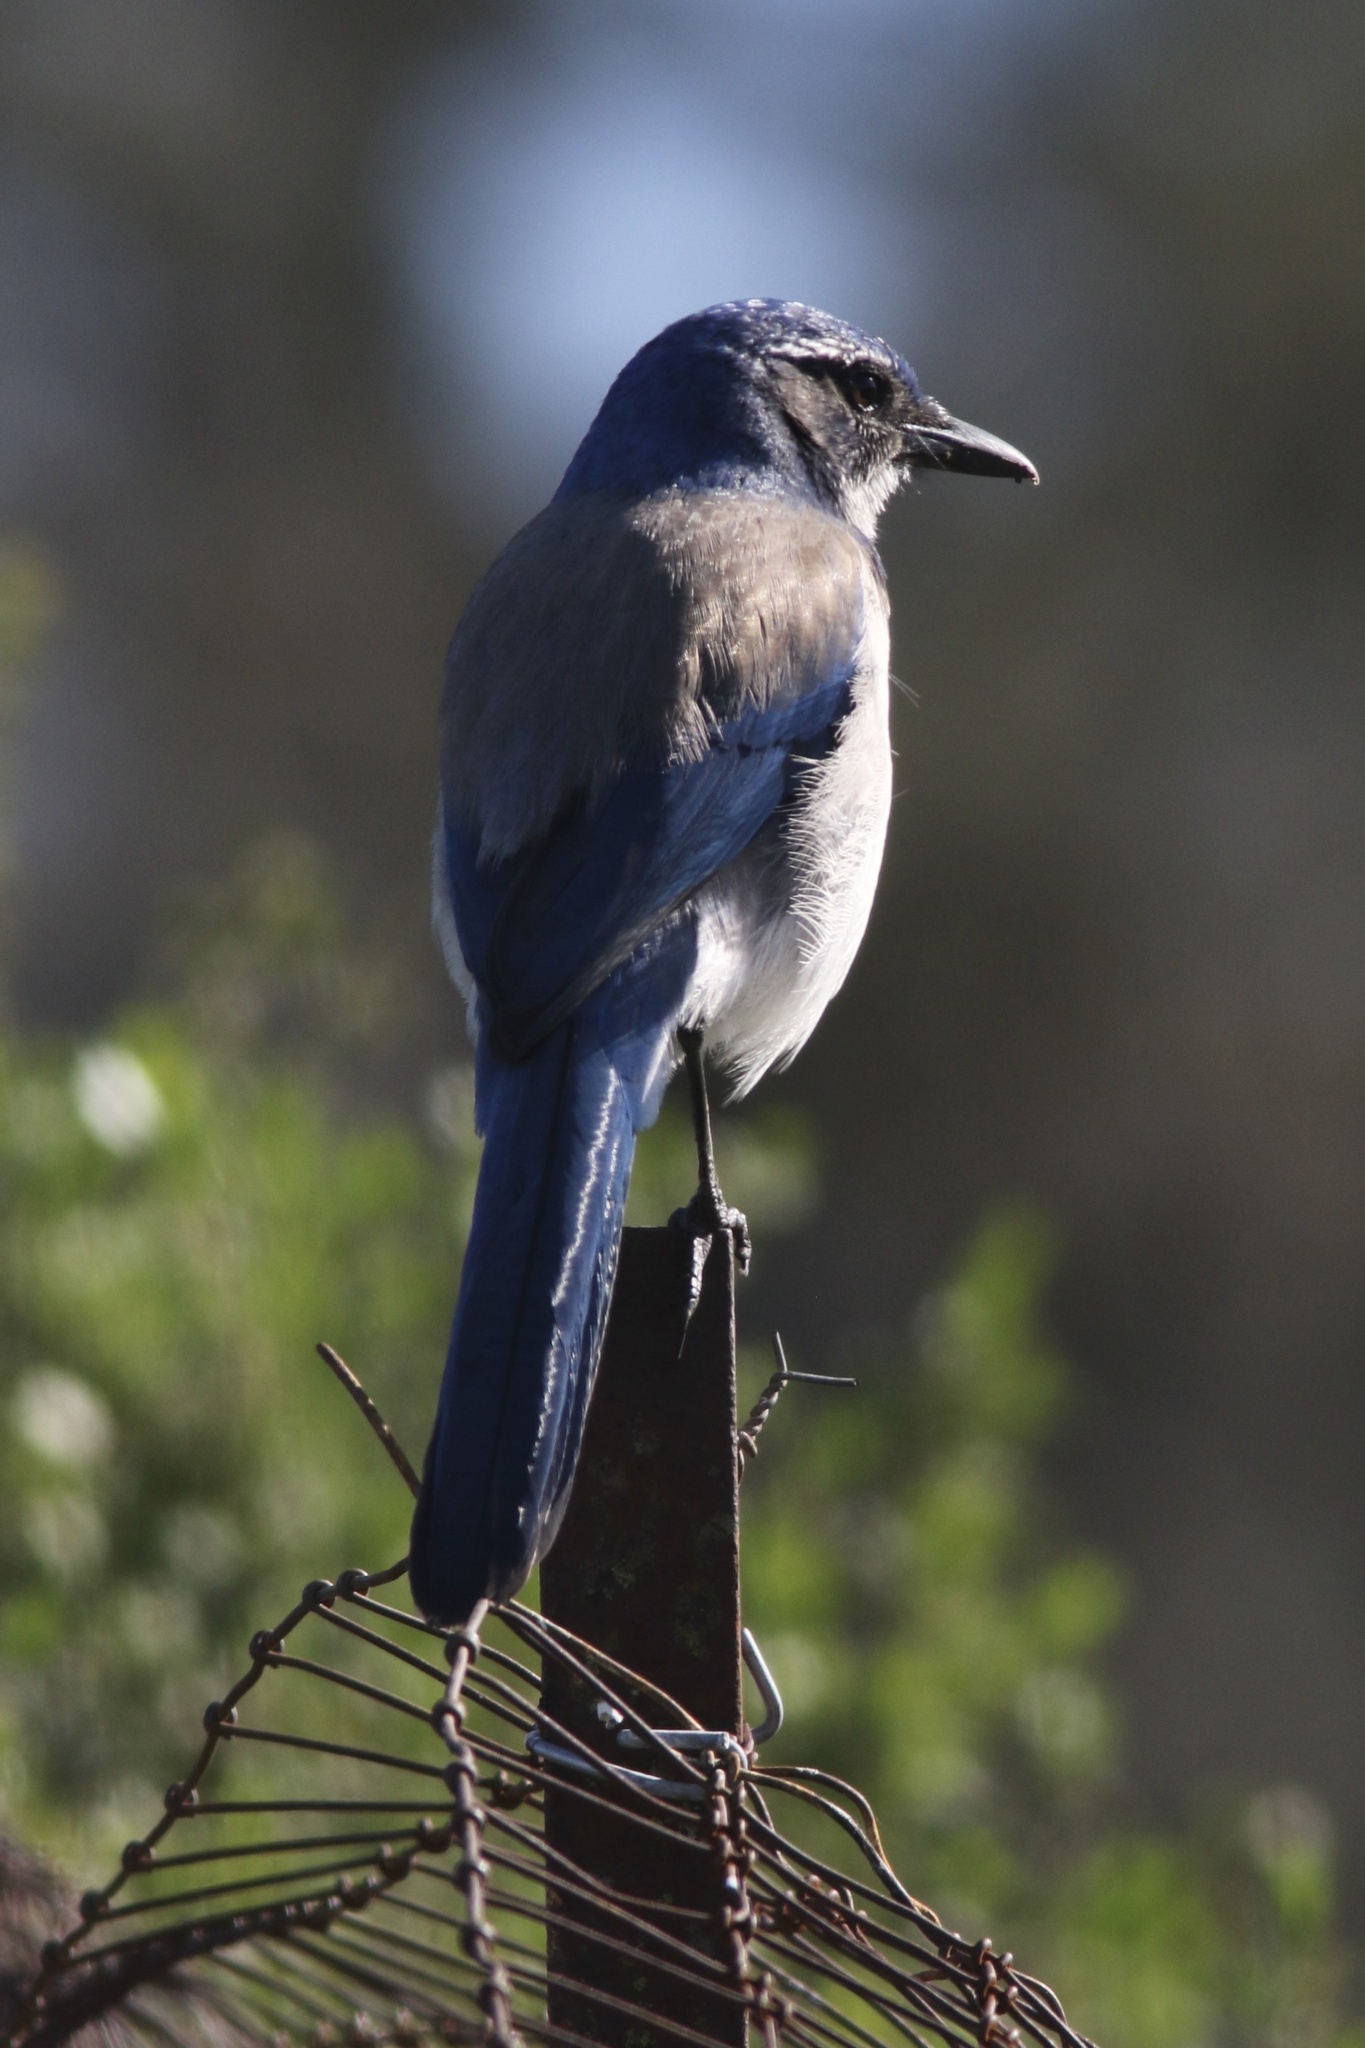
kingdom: Animalia
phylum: Chordata
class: Aves
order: Passeriformes
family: Corvidae
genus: Aphelocoma
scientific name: Aphelocoma californica
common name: California scrub-jay
